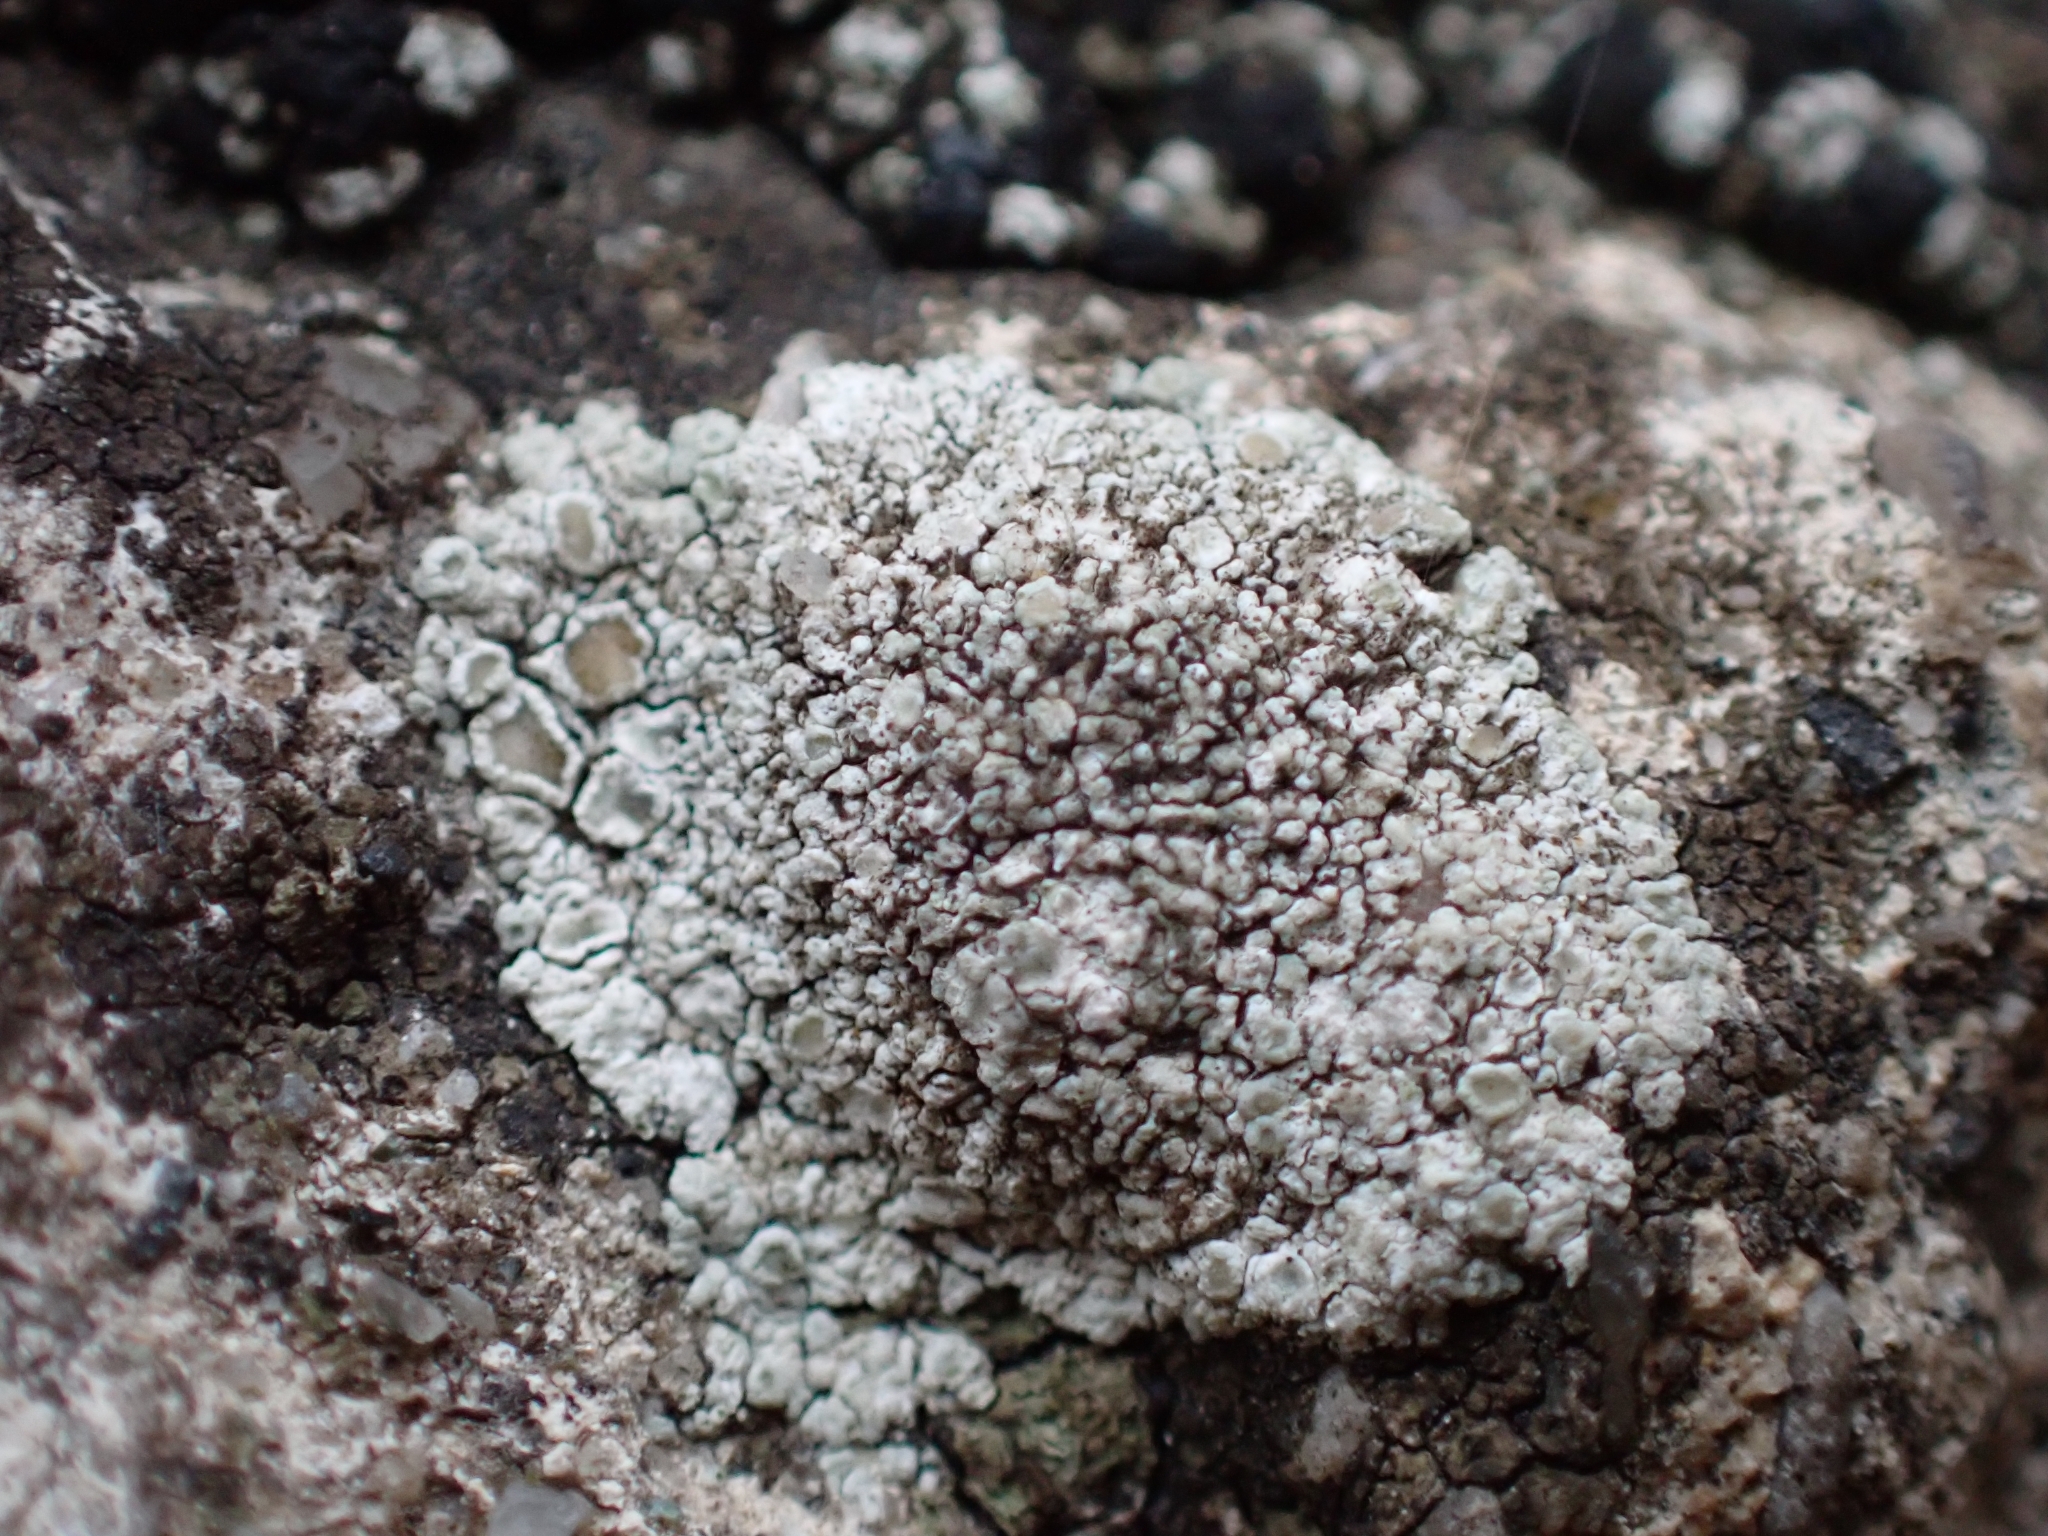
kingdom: Fungi
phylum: Ascomycota
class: Lecanoromycetes
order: Lecanorales
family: Lecanoraceae
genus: Polyozosia
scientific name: Polyozosia albescens
